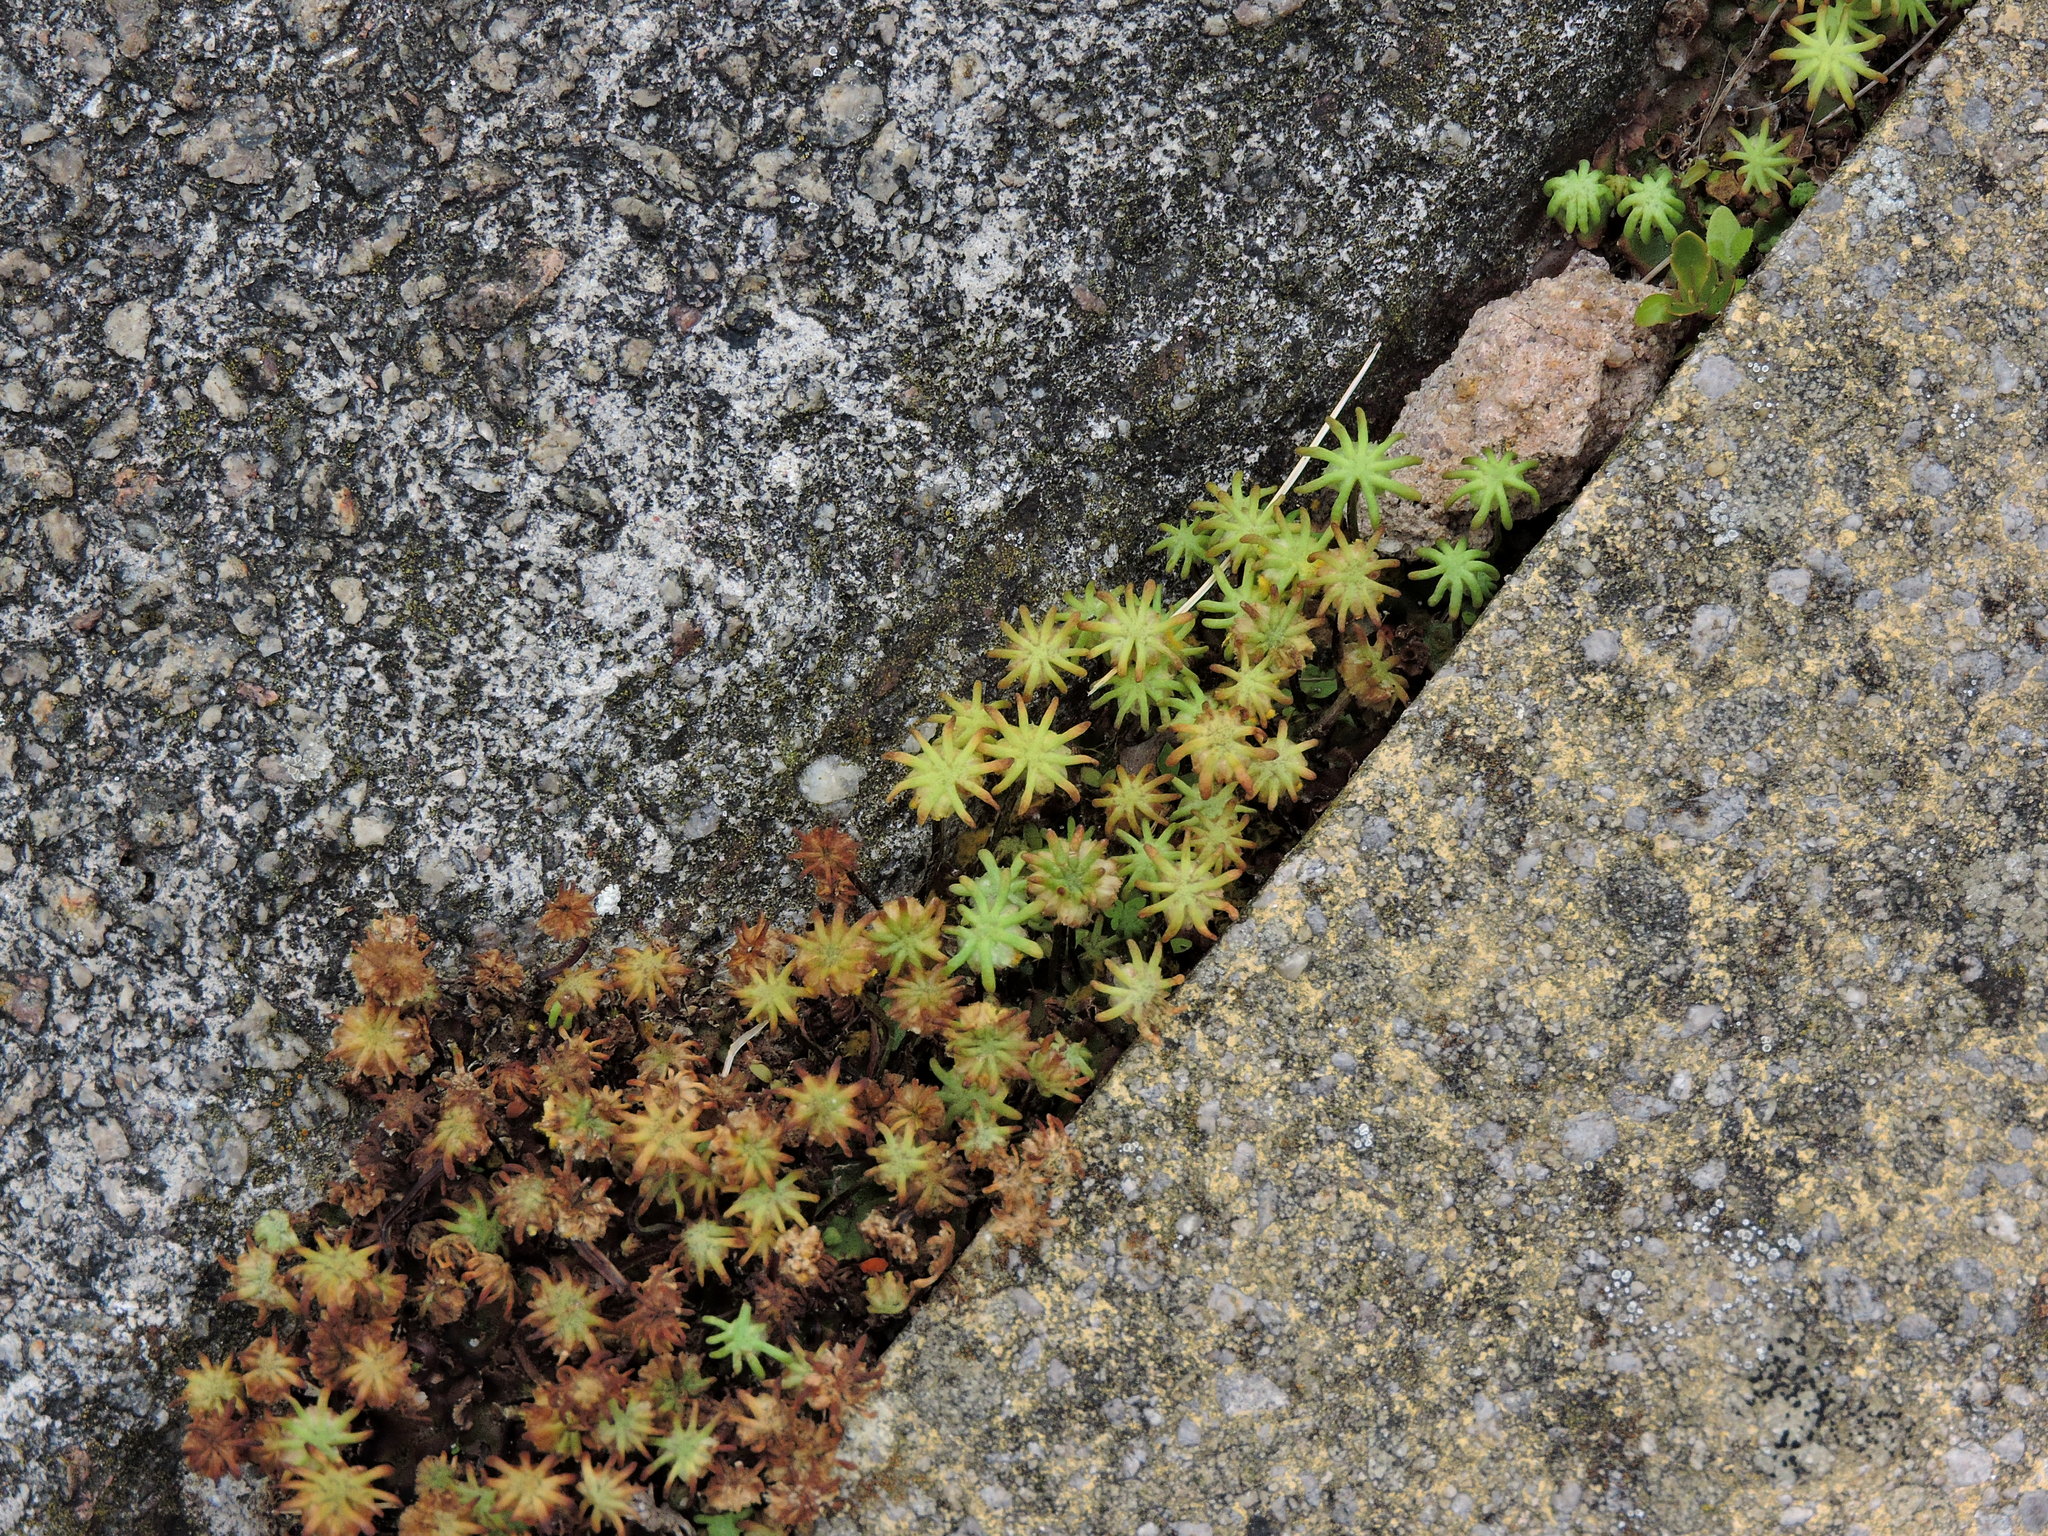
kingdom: Plantae
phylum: Marchantiophyta
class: Marchantiopsida
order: Marchantiales
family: Marchantiaceae
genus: Marchantia
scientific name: Marchantia polymorpha
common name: Common liverwort
